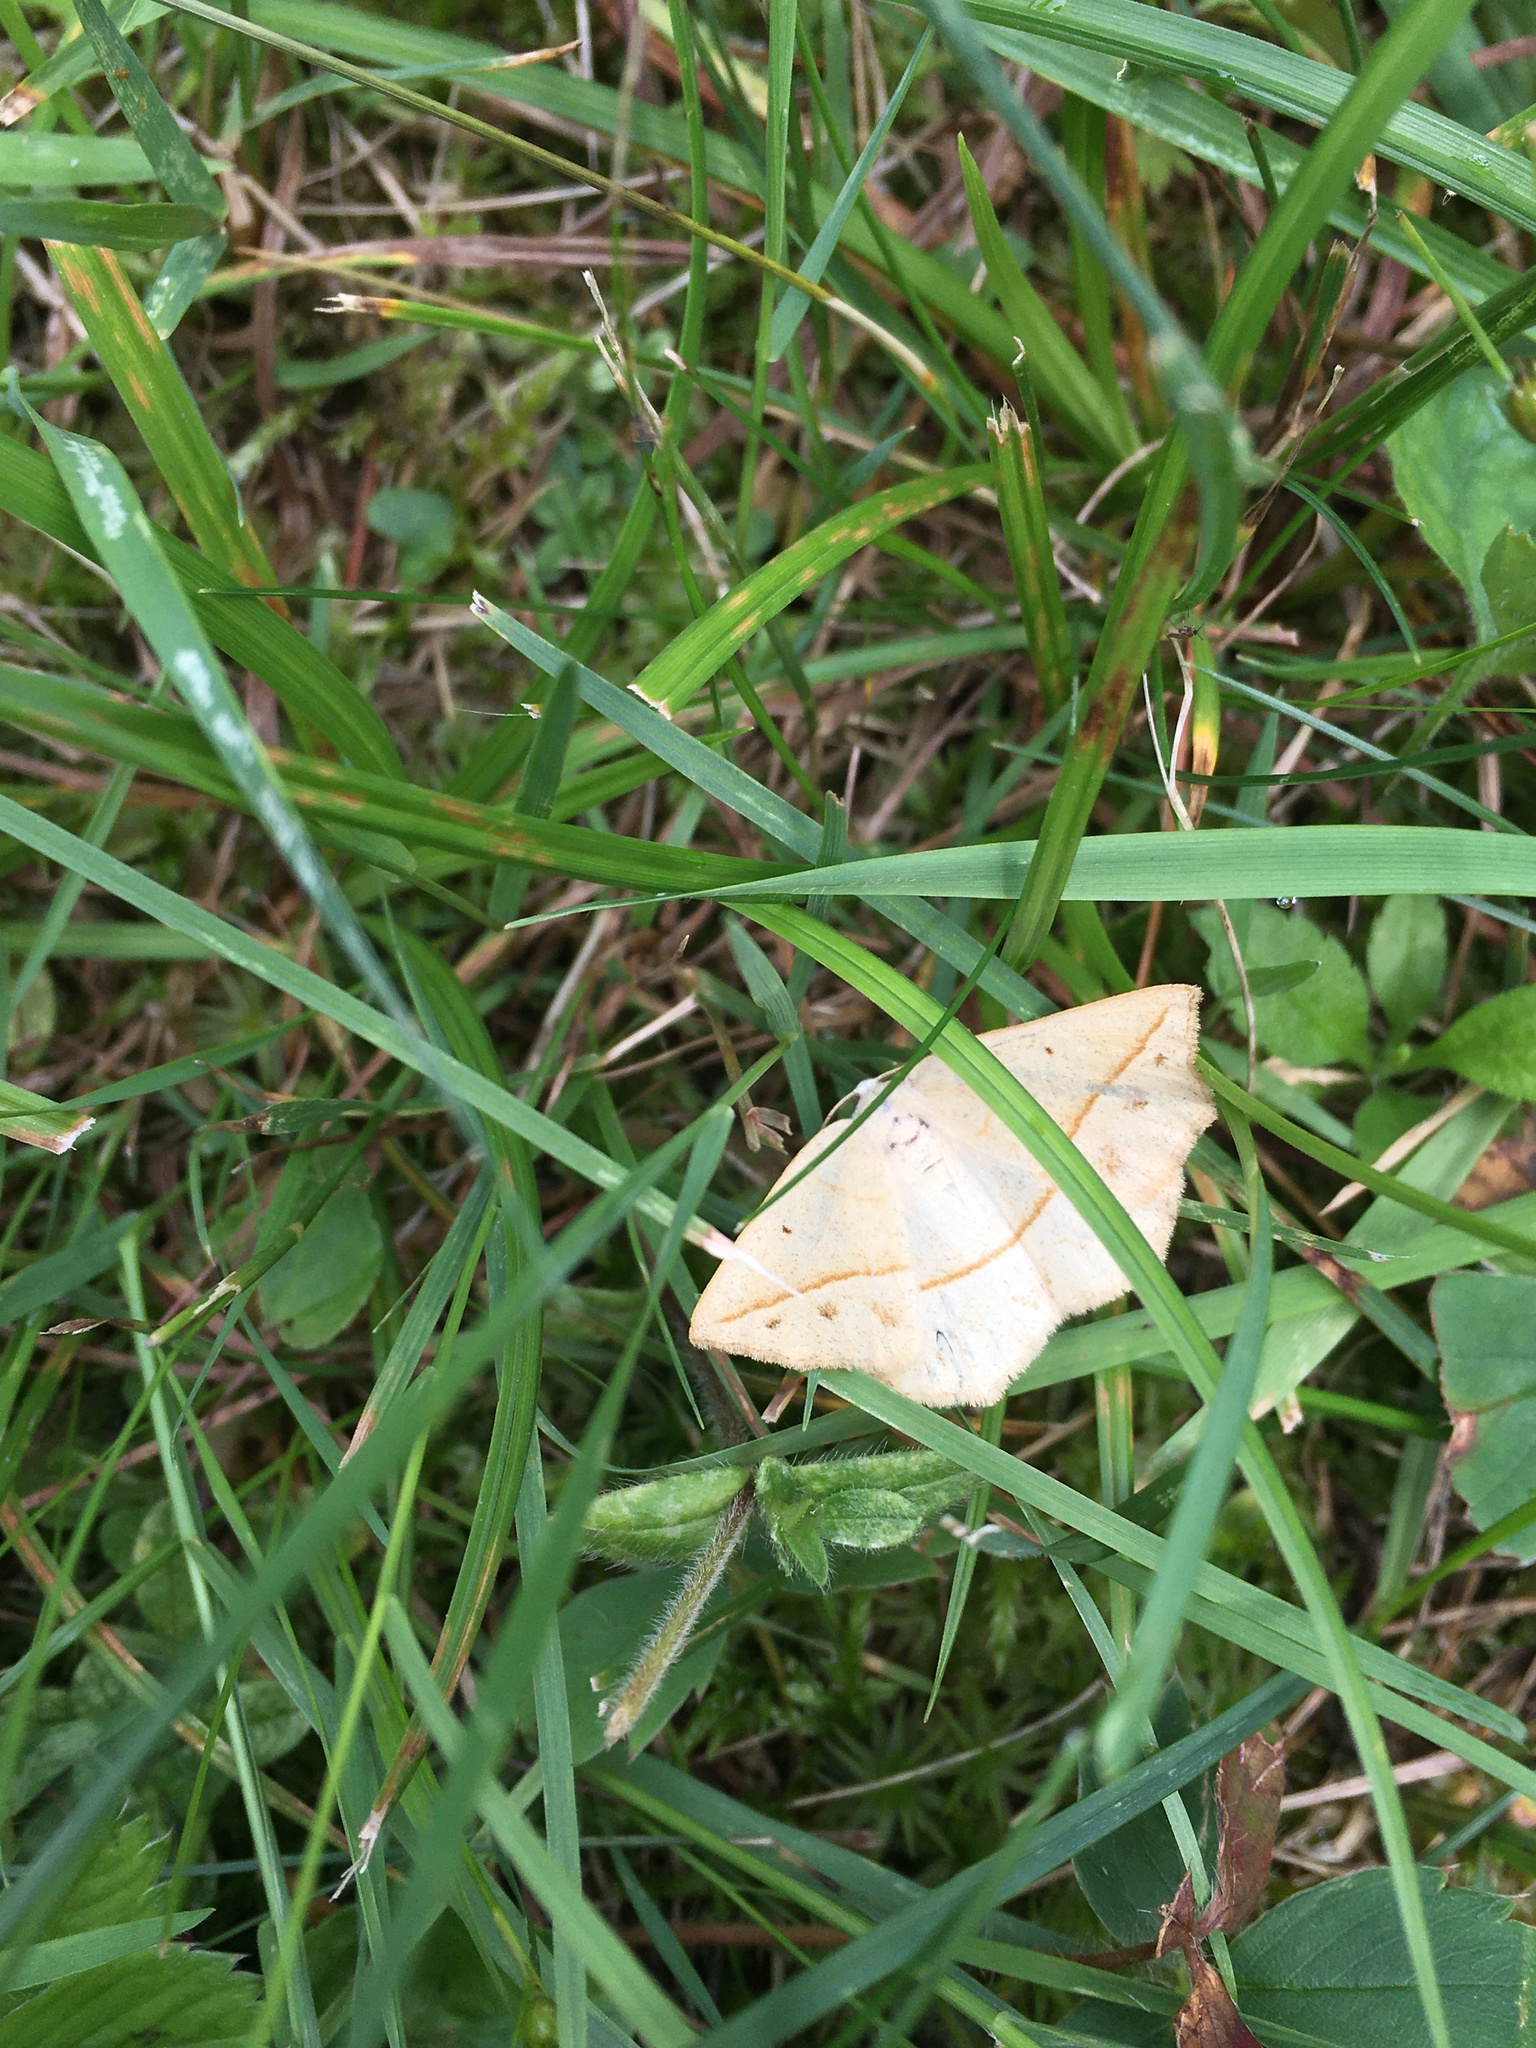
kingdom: Animalia
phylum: Arthropoda
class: Insecta
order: Lepidoptera
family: Geometridae
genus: Eusarca
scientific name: Eusarca confusaria
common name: Confused eusarca
